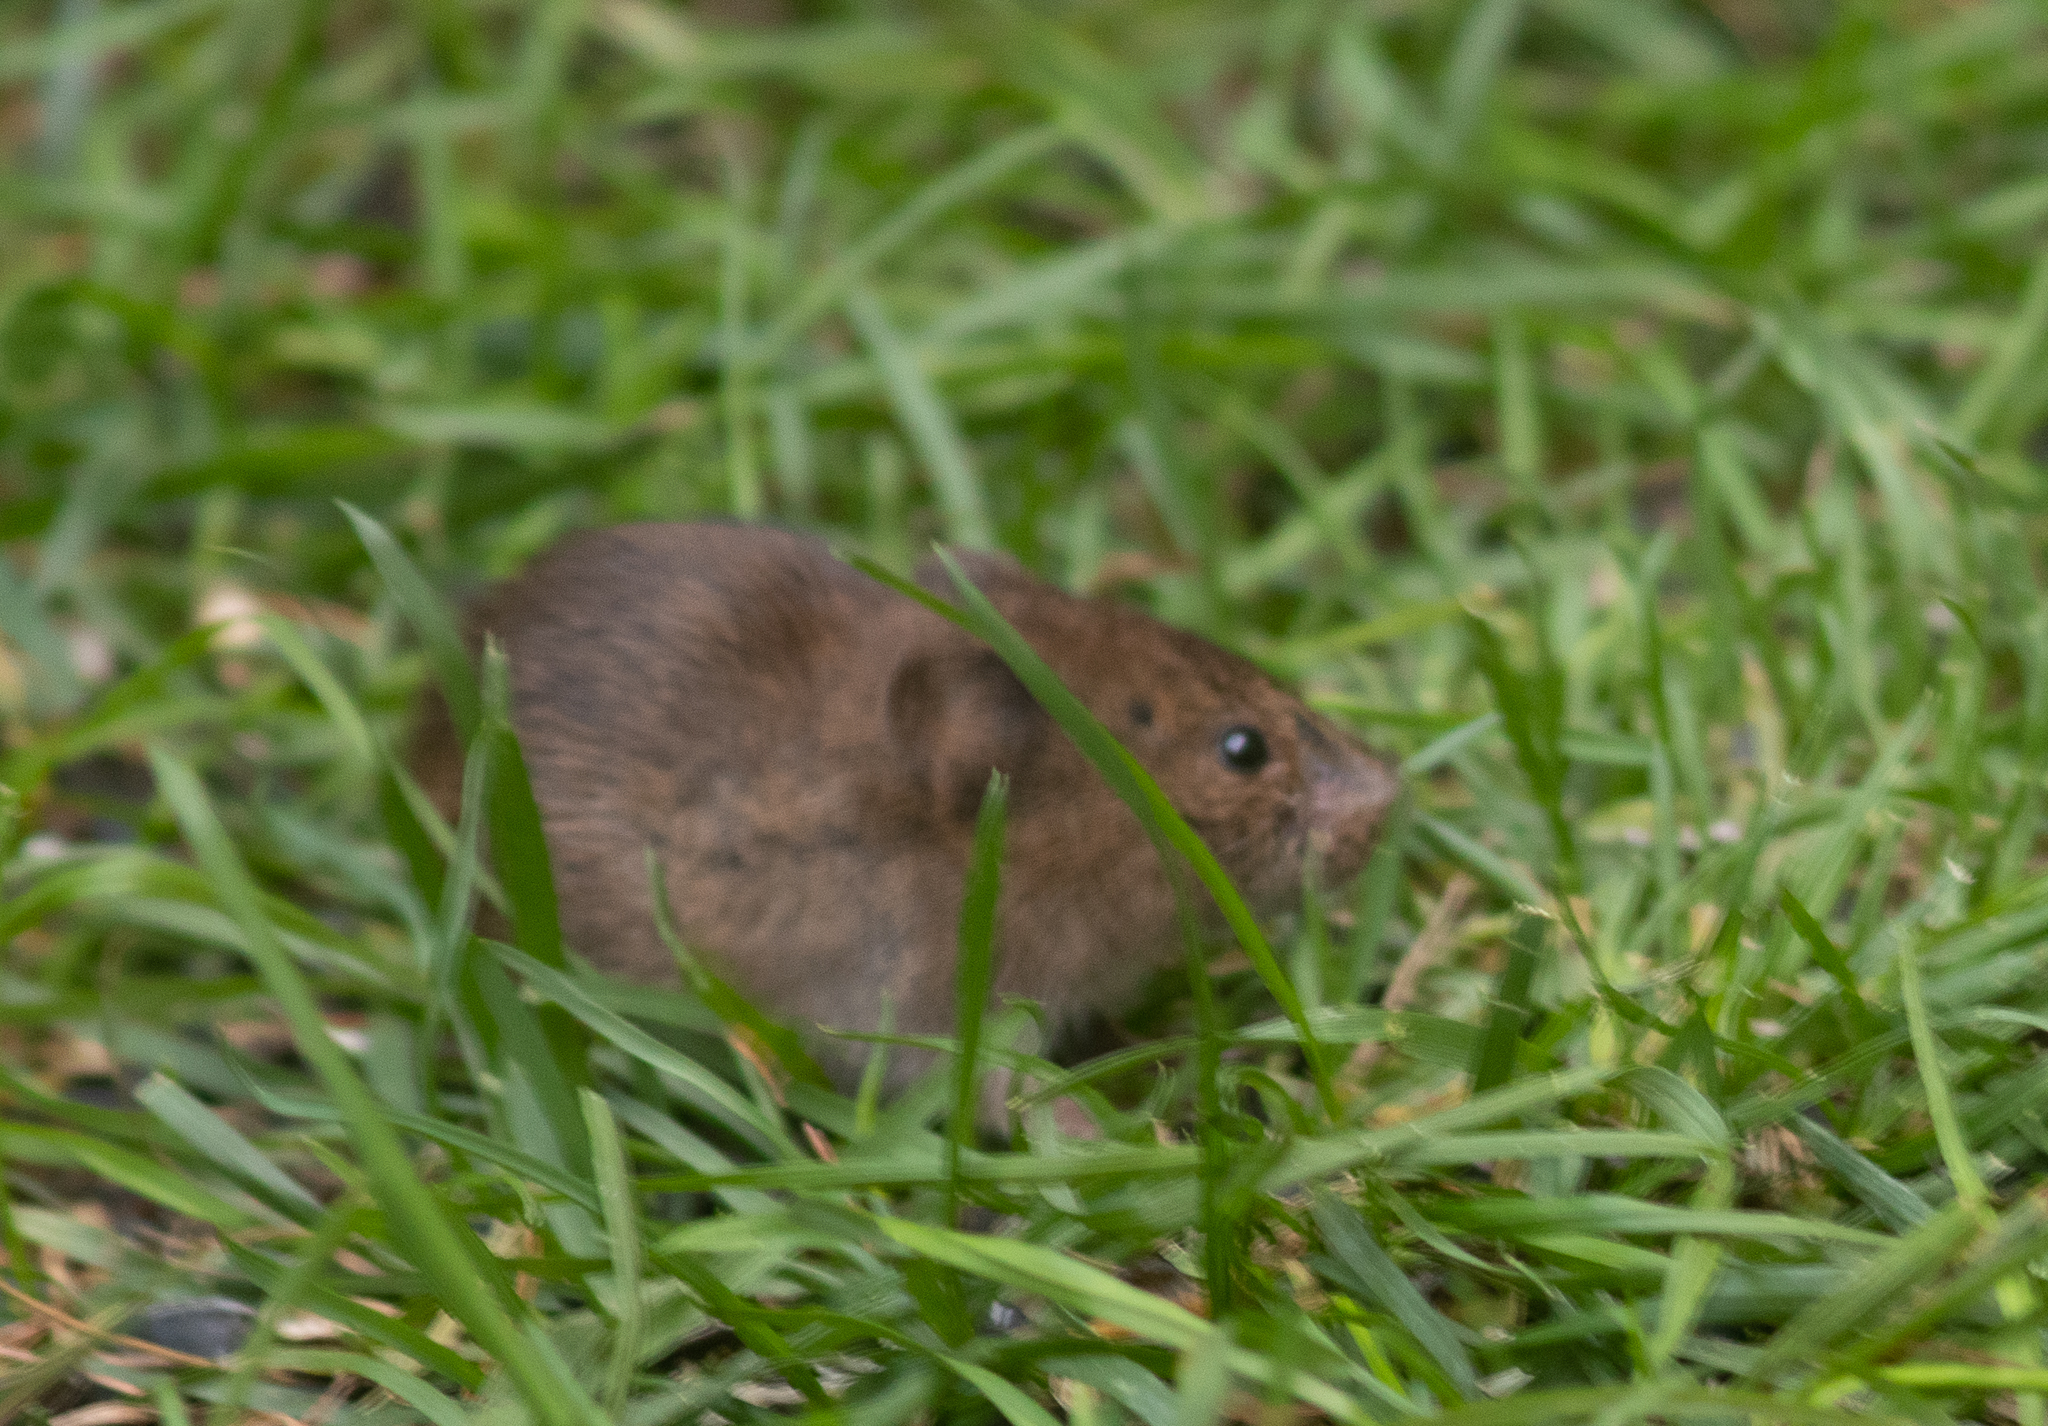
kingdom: Animalia
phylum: Chordata
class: Mammalia
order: Rodentia
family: Cricetidae
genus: Microtus
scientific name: Microtus pennsylvanicus
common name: Meadow vole
